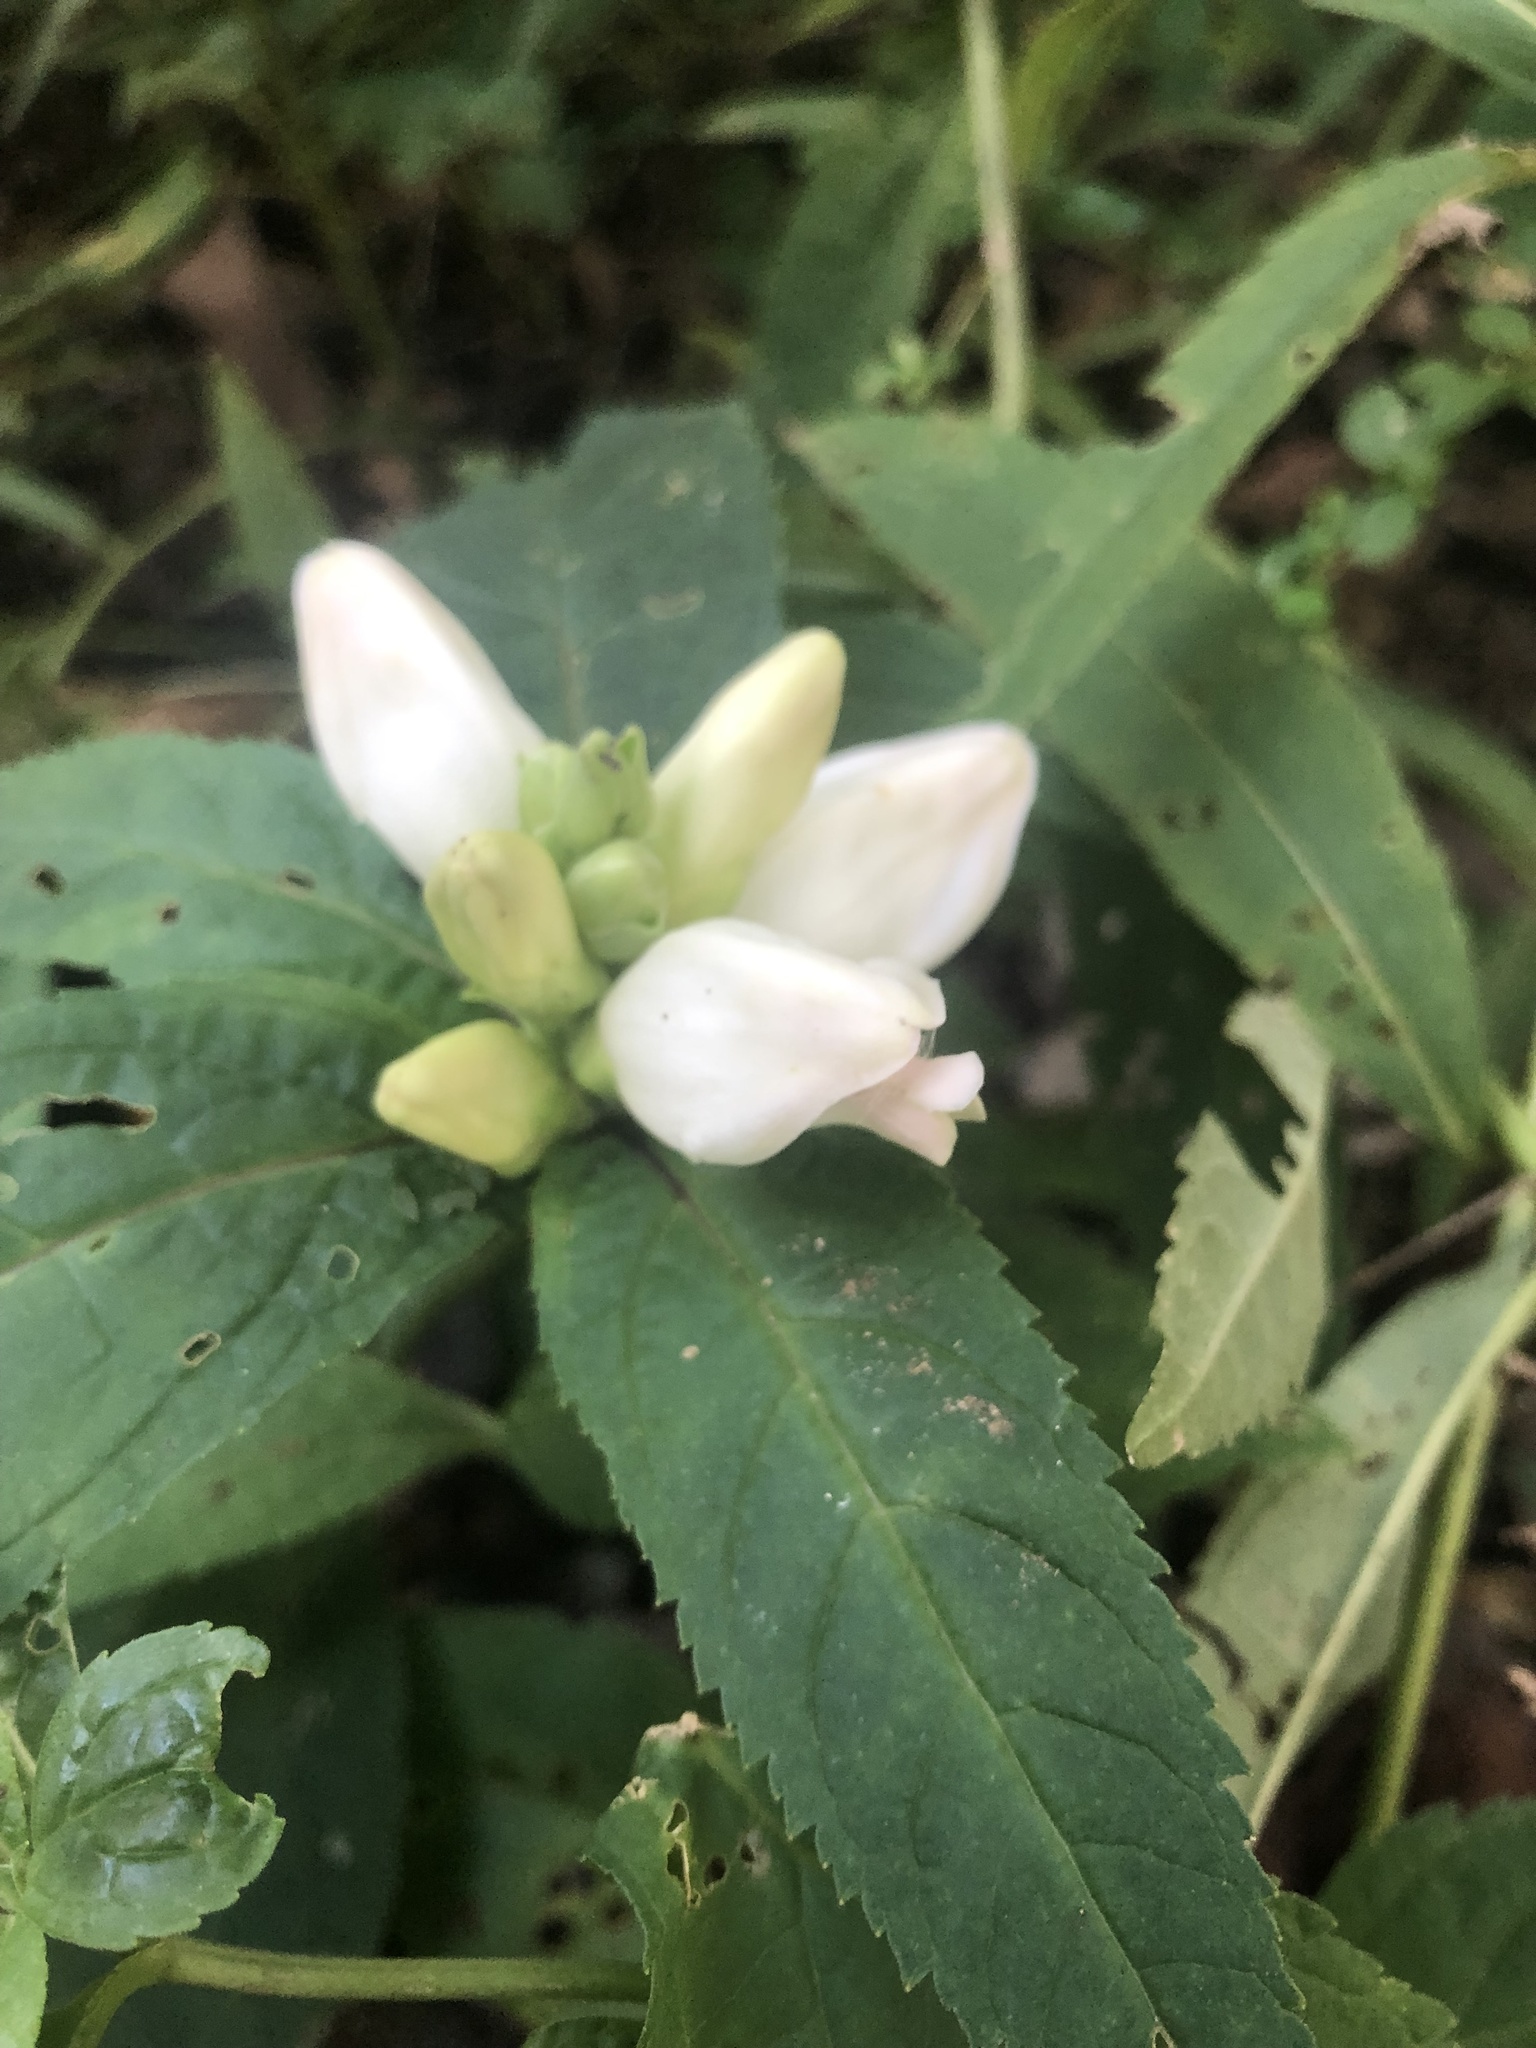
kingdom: Plantae
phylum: Tracheophyta
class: Magnoliopsida
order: Lamiales
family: Plantaginaceae
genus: Chelone
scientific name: Chelone glabra
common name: Snakehead
